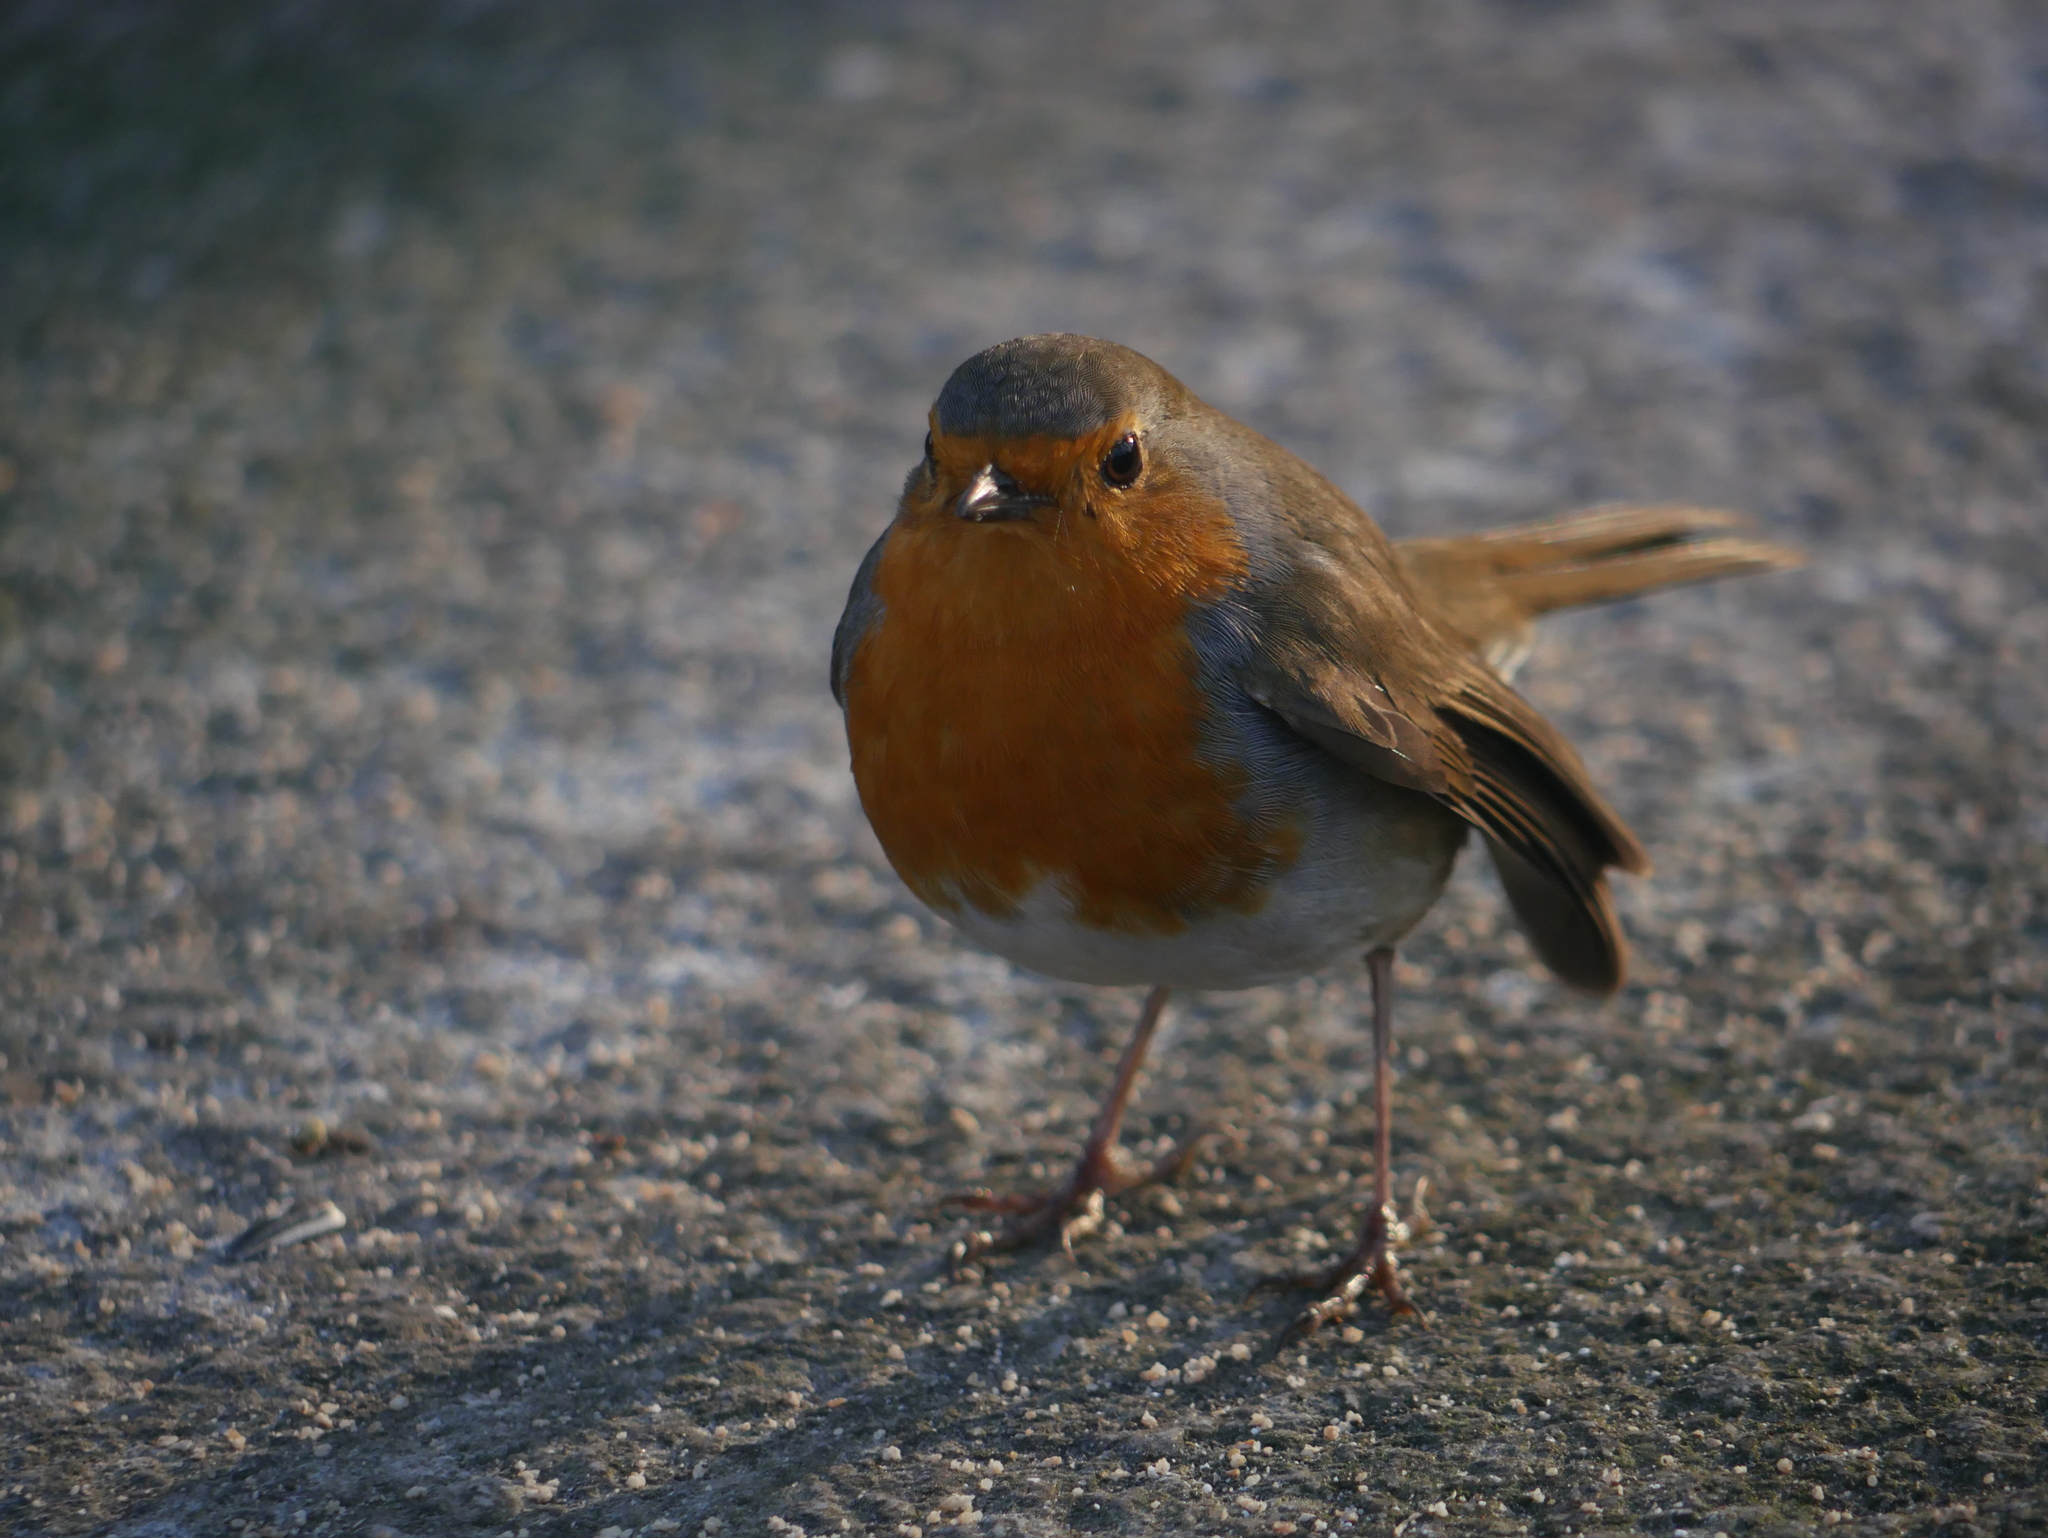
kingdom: Animalia
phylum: Chordata
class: Aves
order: Passeriformes
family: Muscicapidae
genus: Erithacus
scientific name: Erithacus rubecula
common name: European robin
